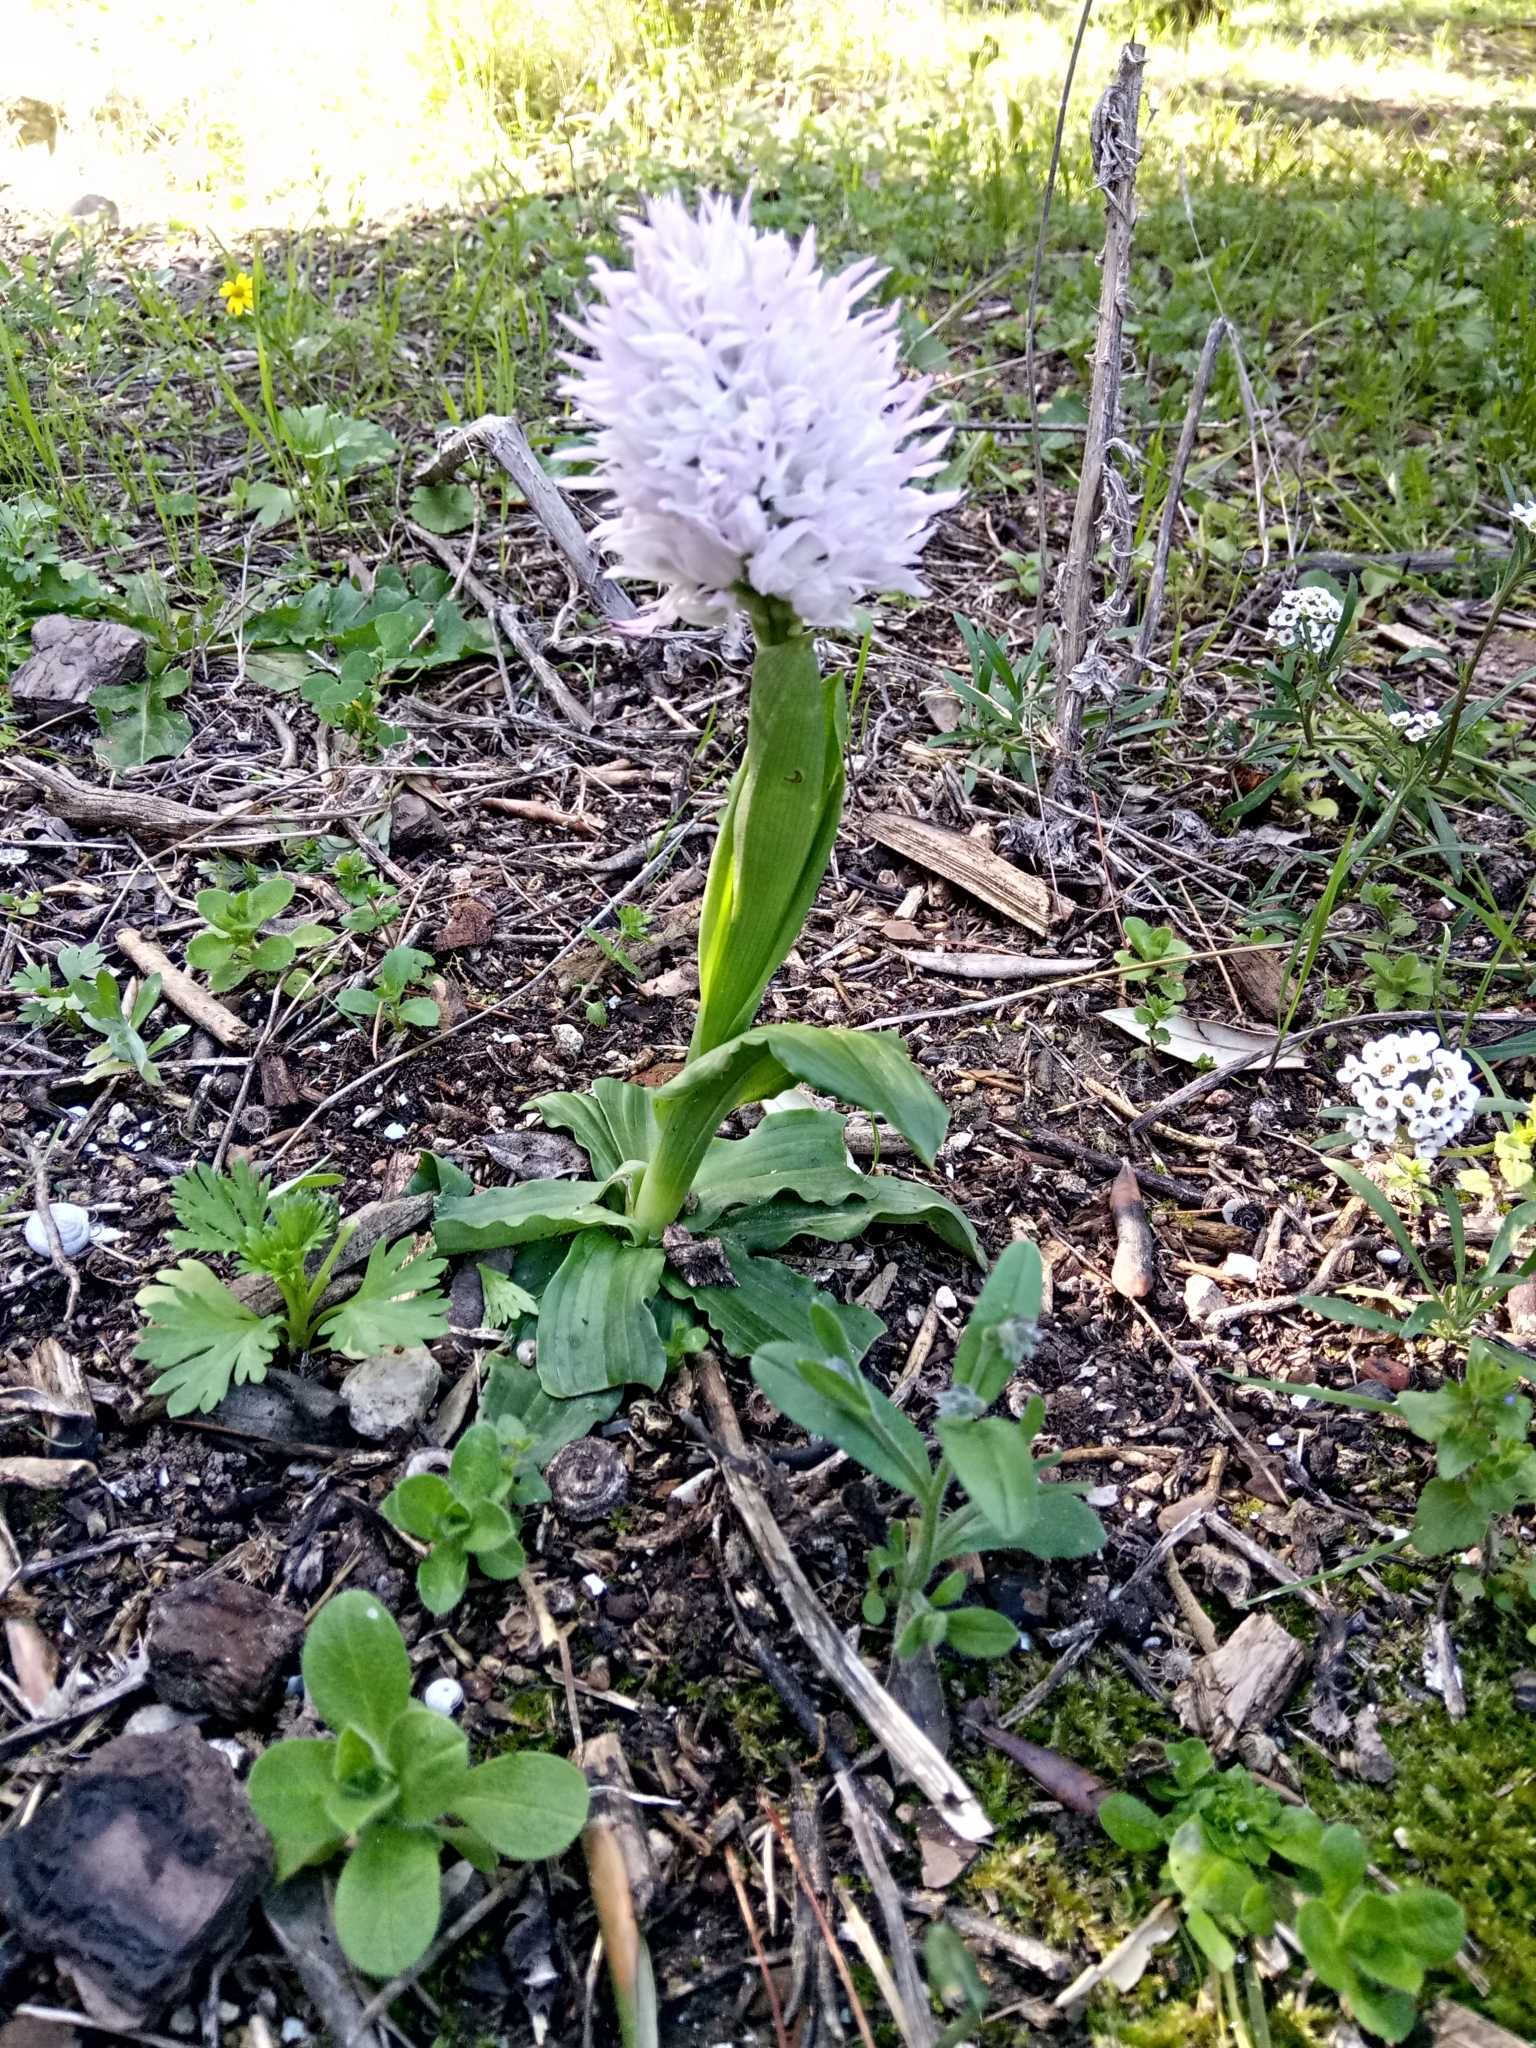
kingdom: Plantae
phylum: Tracheophyta
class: Liliopsida
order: Asparagales
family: Orchidaceae
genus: Orchis
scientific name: Orchis italica
